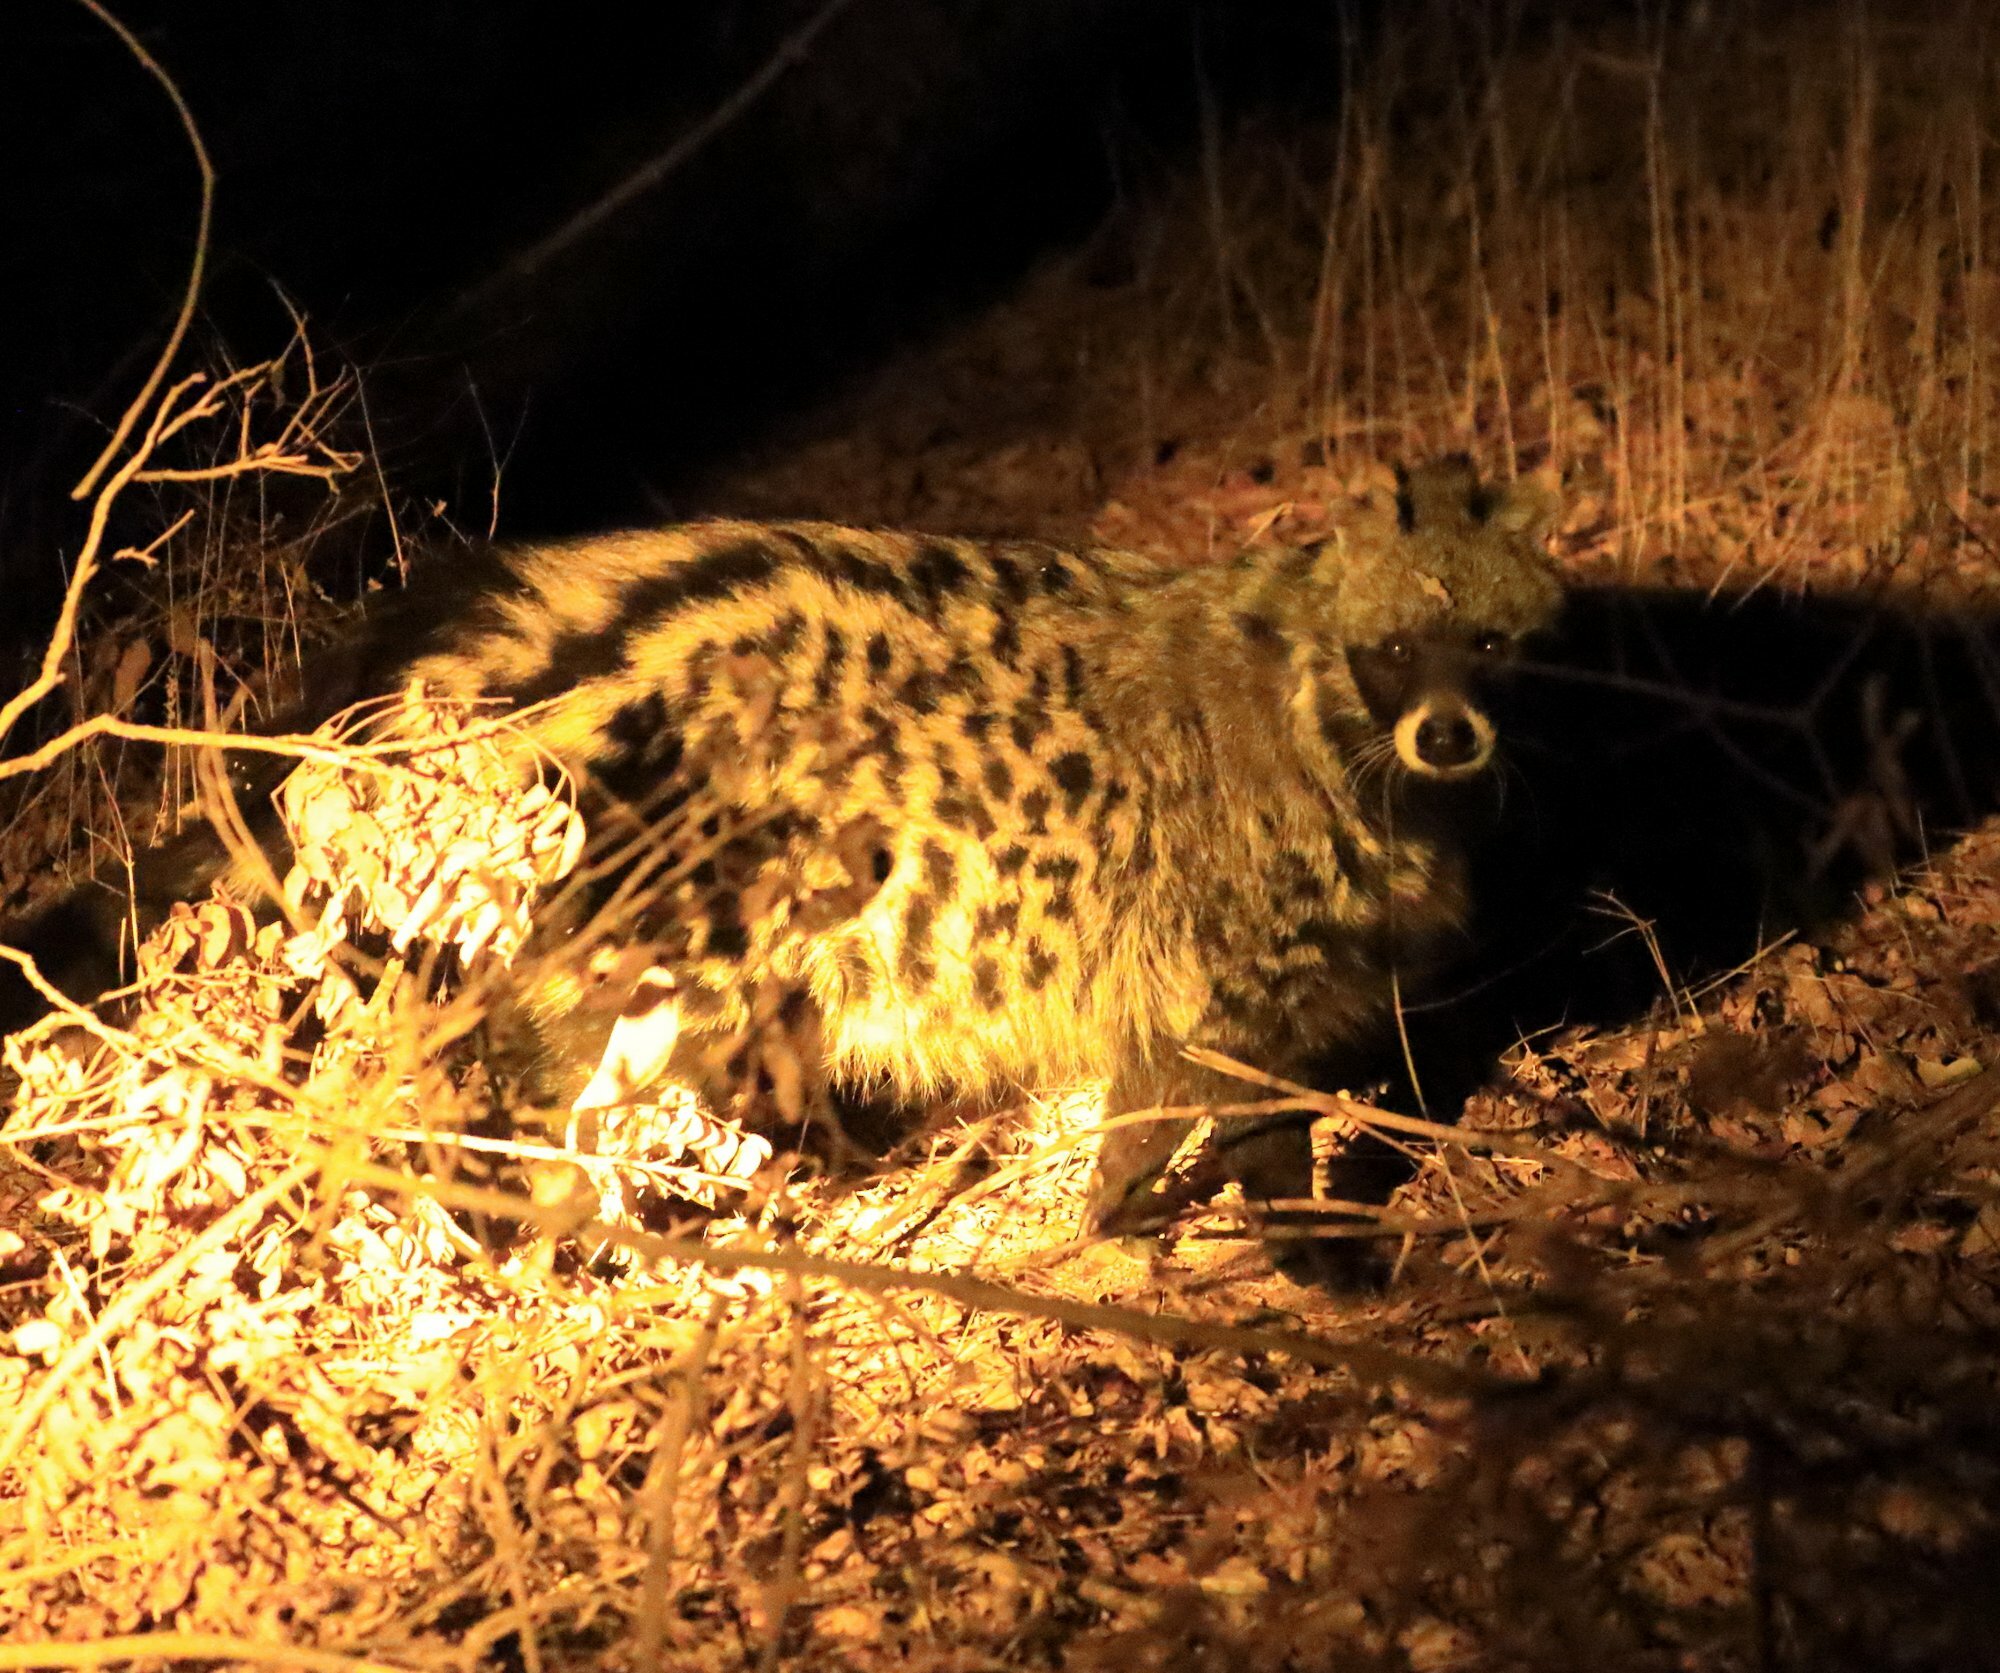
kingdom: Animalia
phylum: Chordata
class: Mammalia
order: Carnivora
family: Viverridae
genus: Civettictis
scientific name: Civettictis civetta
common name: African civet
